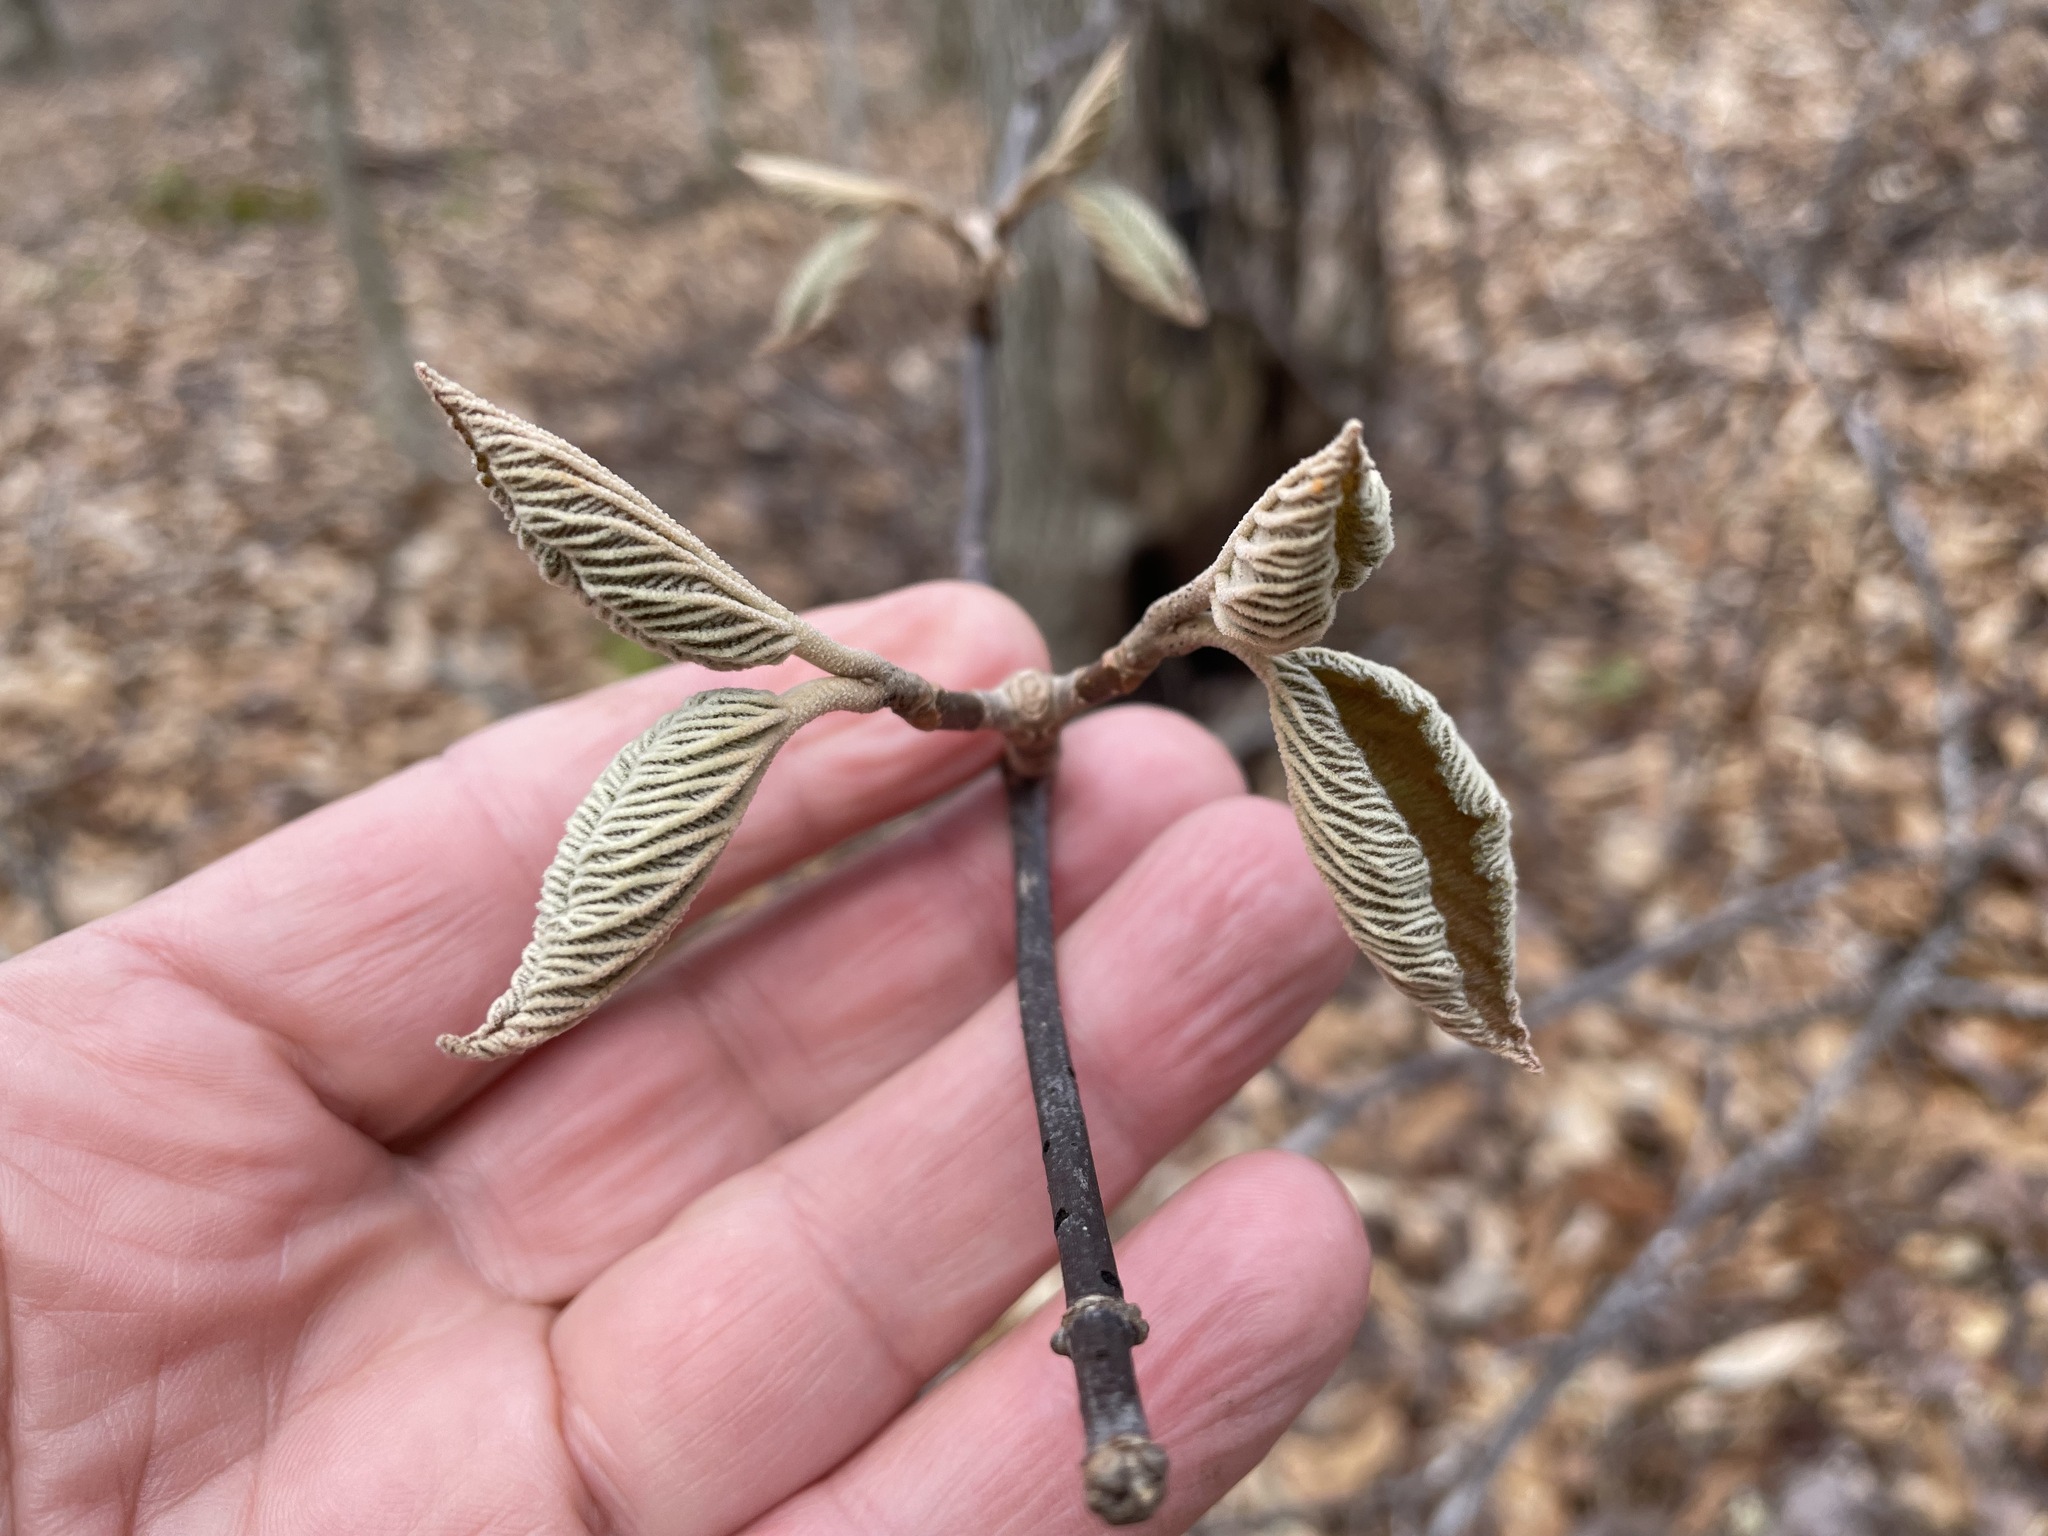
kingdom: Plantae
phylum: Tracheophyta
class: Magnoliopsida
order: Dipsacales
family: Viburnaceae
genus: Viburnum
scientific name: Viburnum lantanoides
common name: Hobblebush
